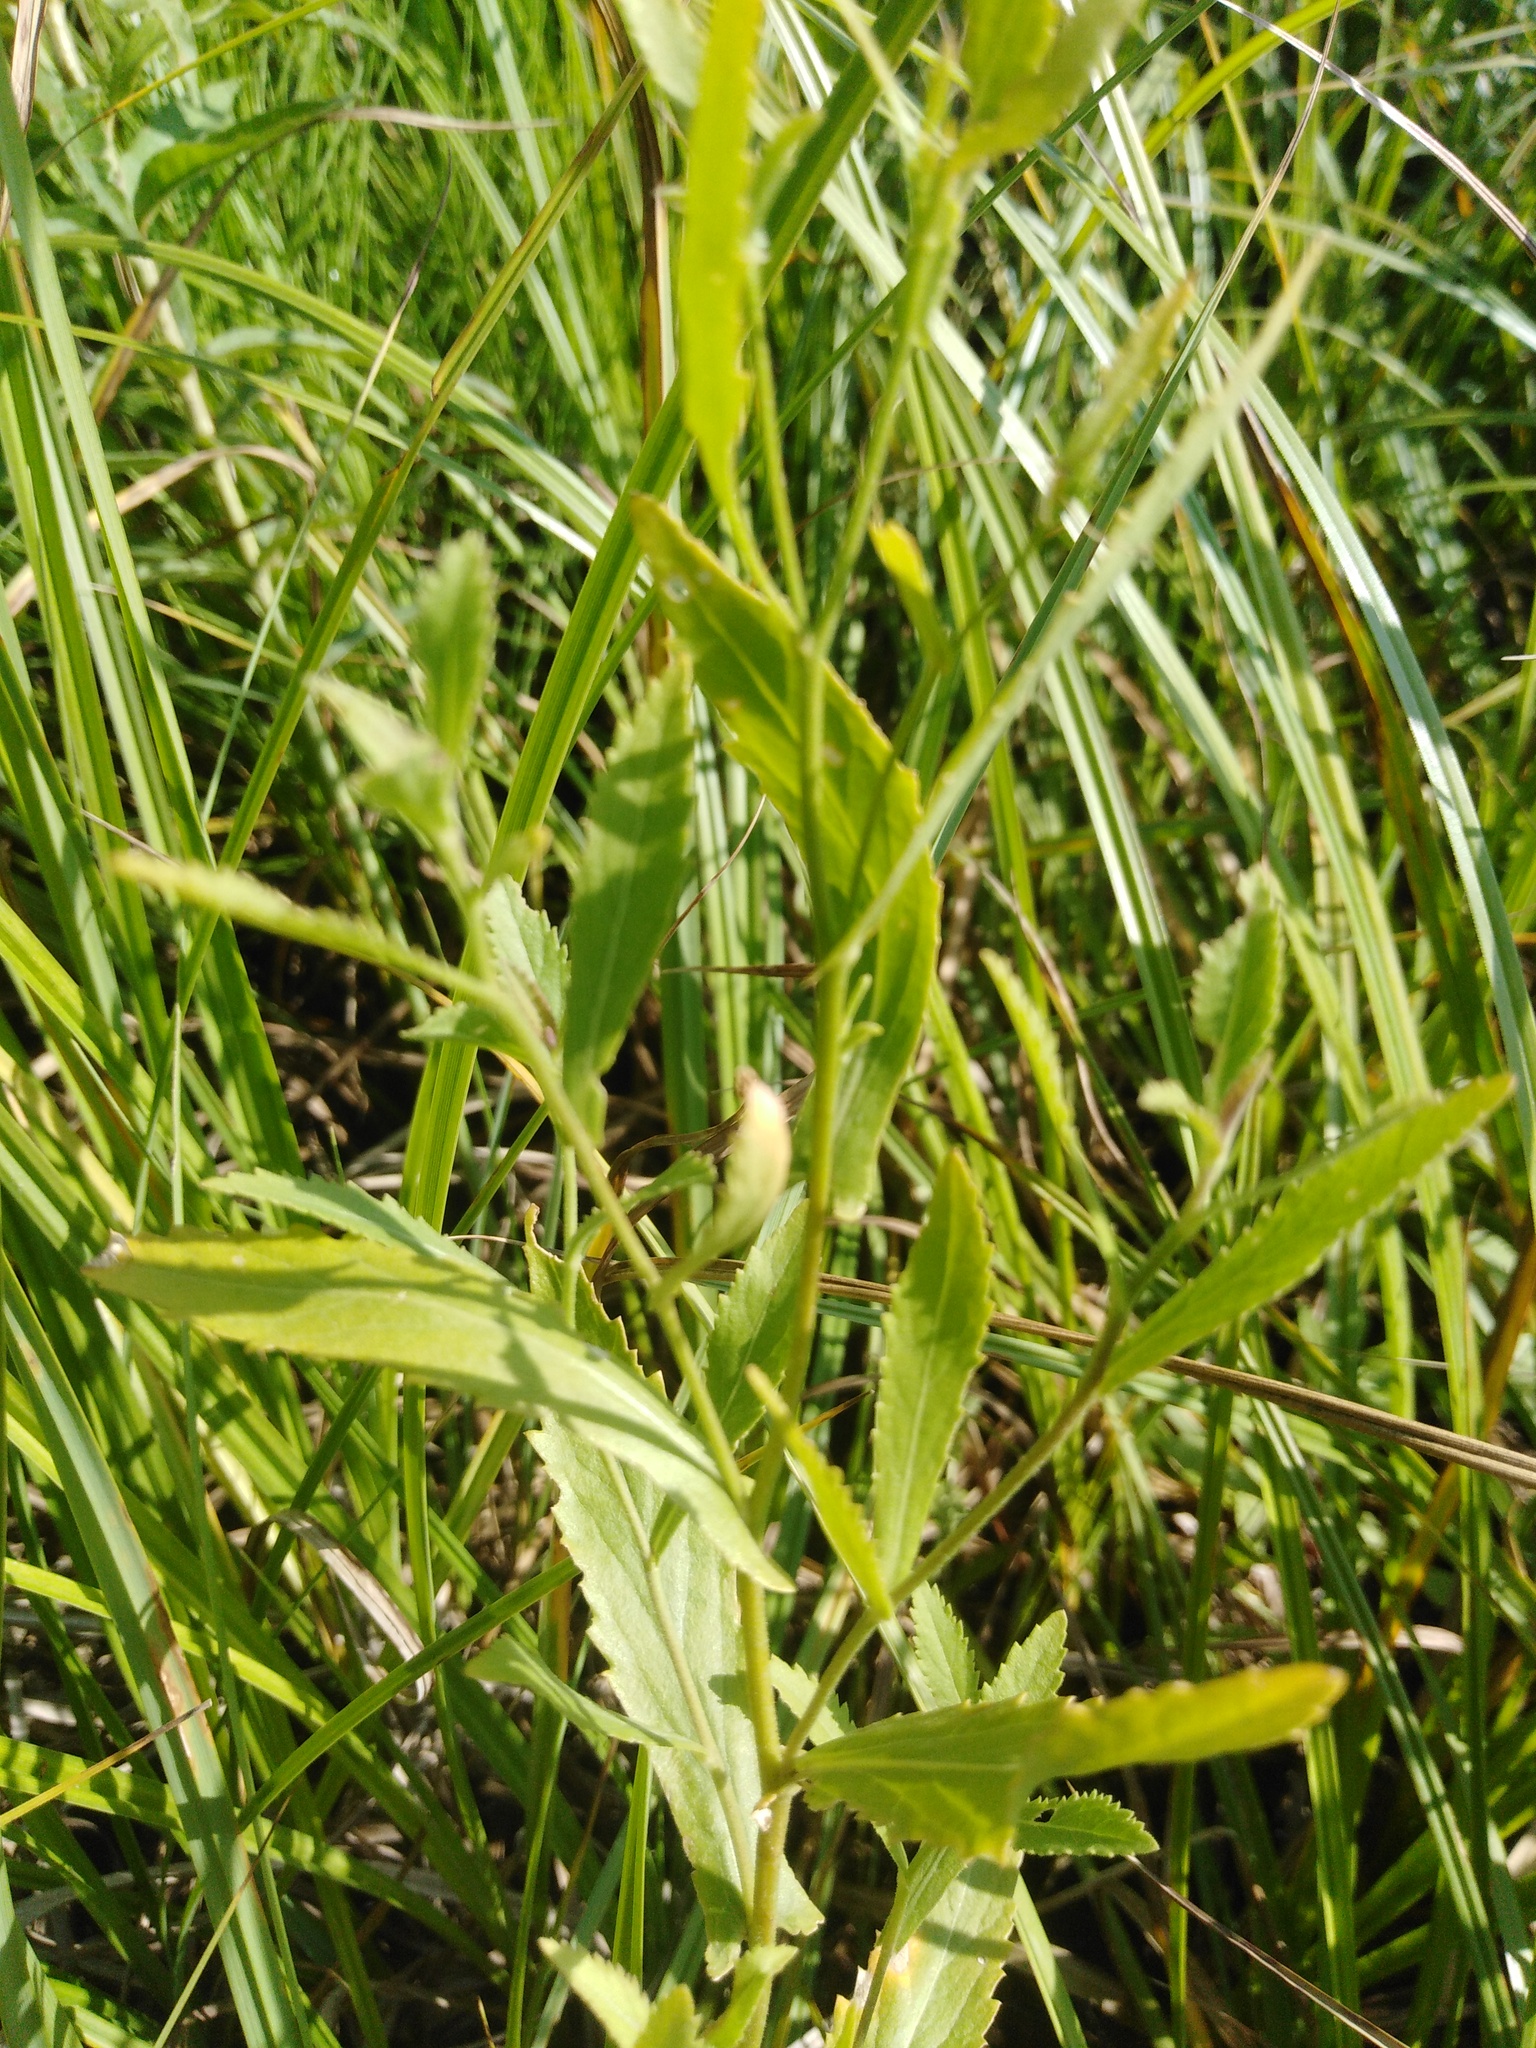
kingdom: Plantae
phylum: Tracheophyta
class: Magnoliopsida
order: Brassicales
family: Brassicaceae
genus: Rorippa
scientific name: Rorippa austriaca
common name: Austrian yellow-cress
